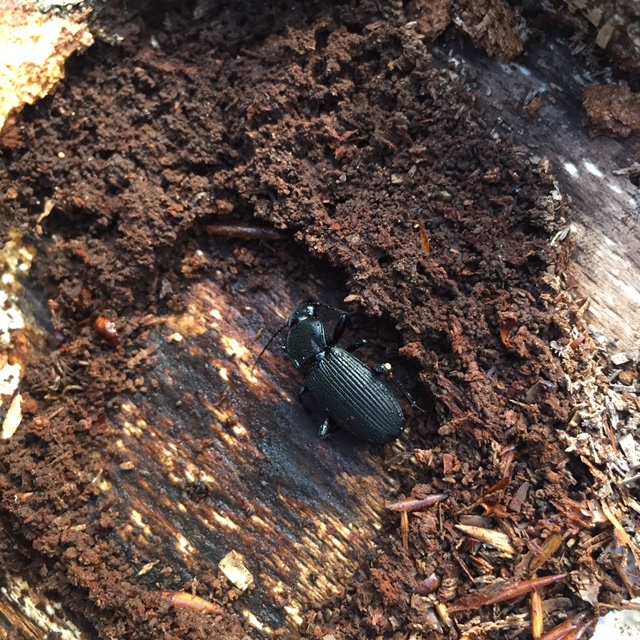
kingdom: Animalia
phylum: Arthropoda
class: Insecta
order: Coleoptera
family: Carabidae
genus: Pterostichus
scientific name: Pterostichus niger
